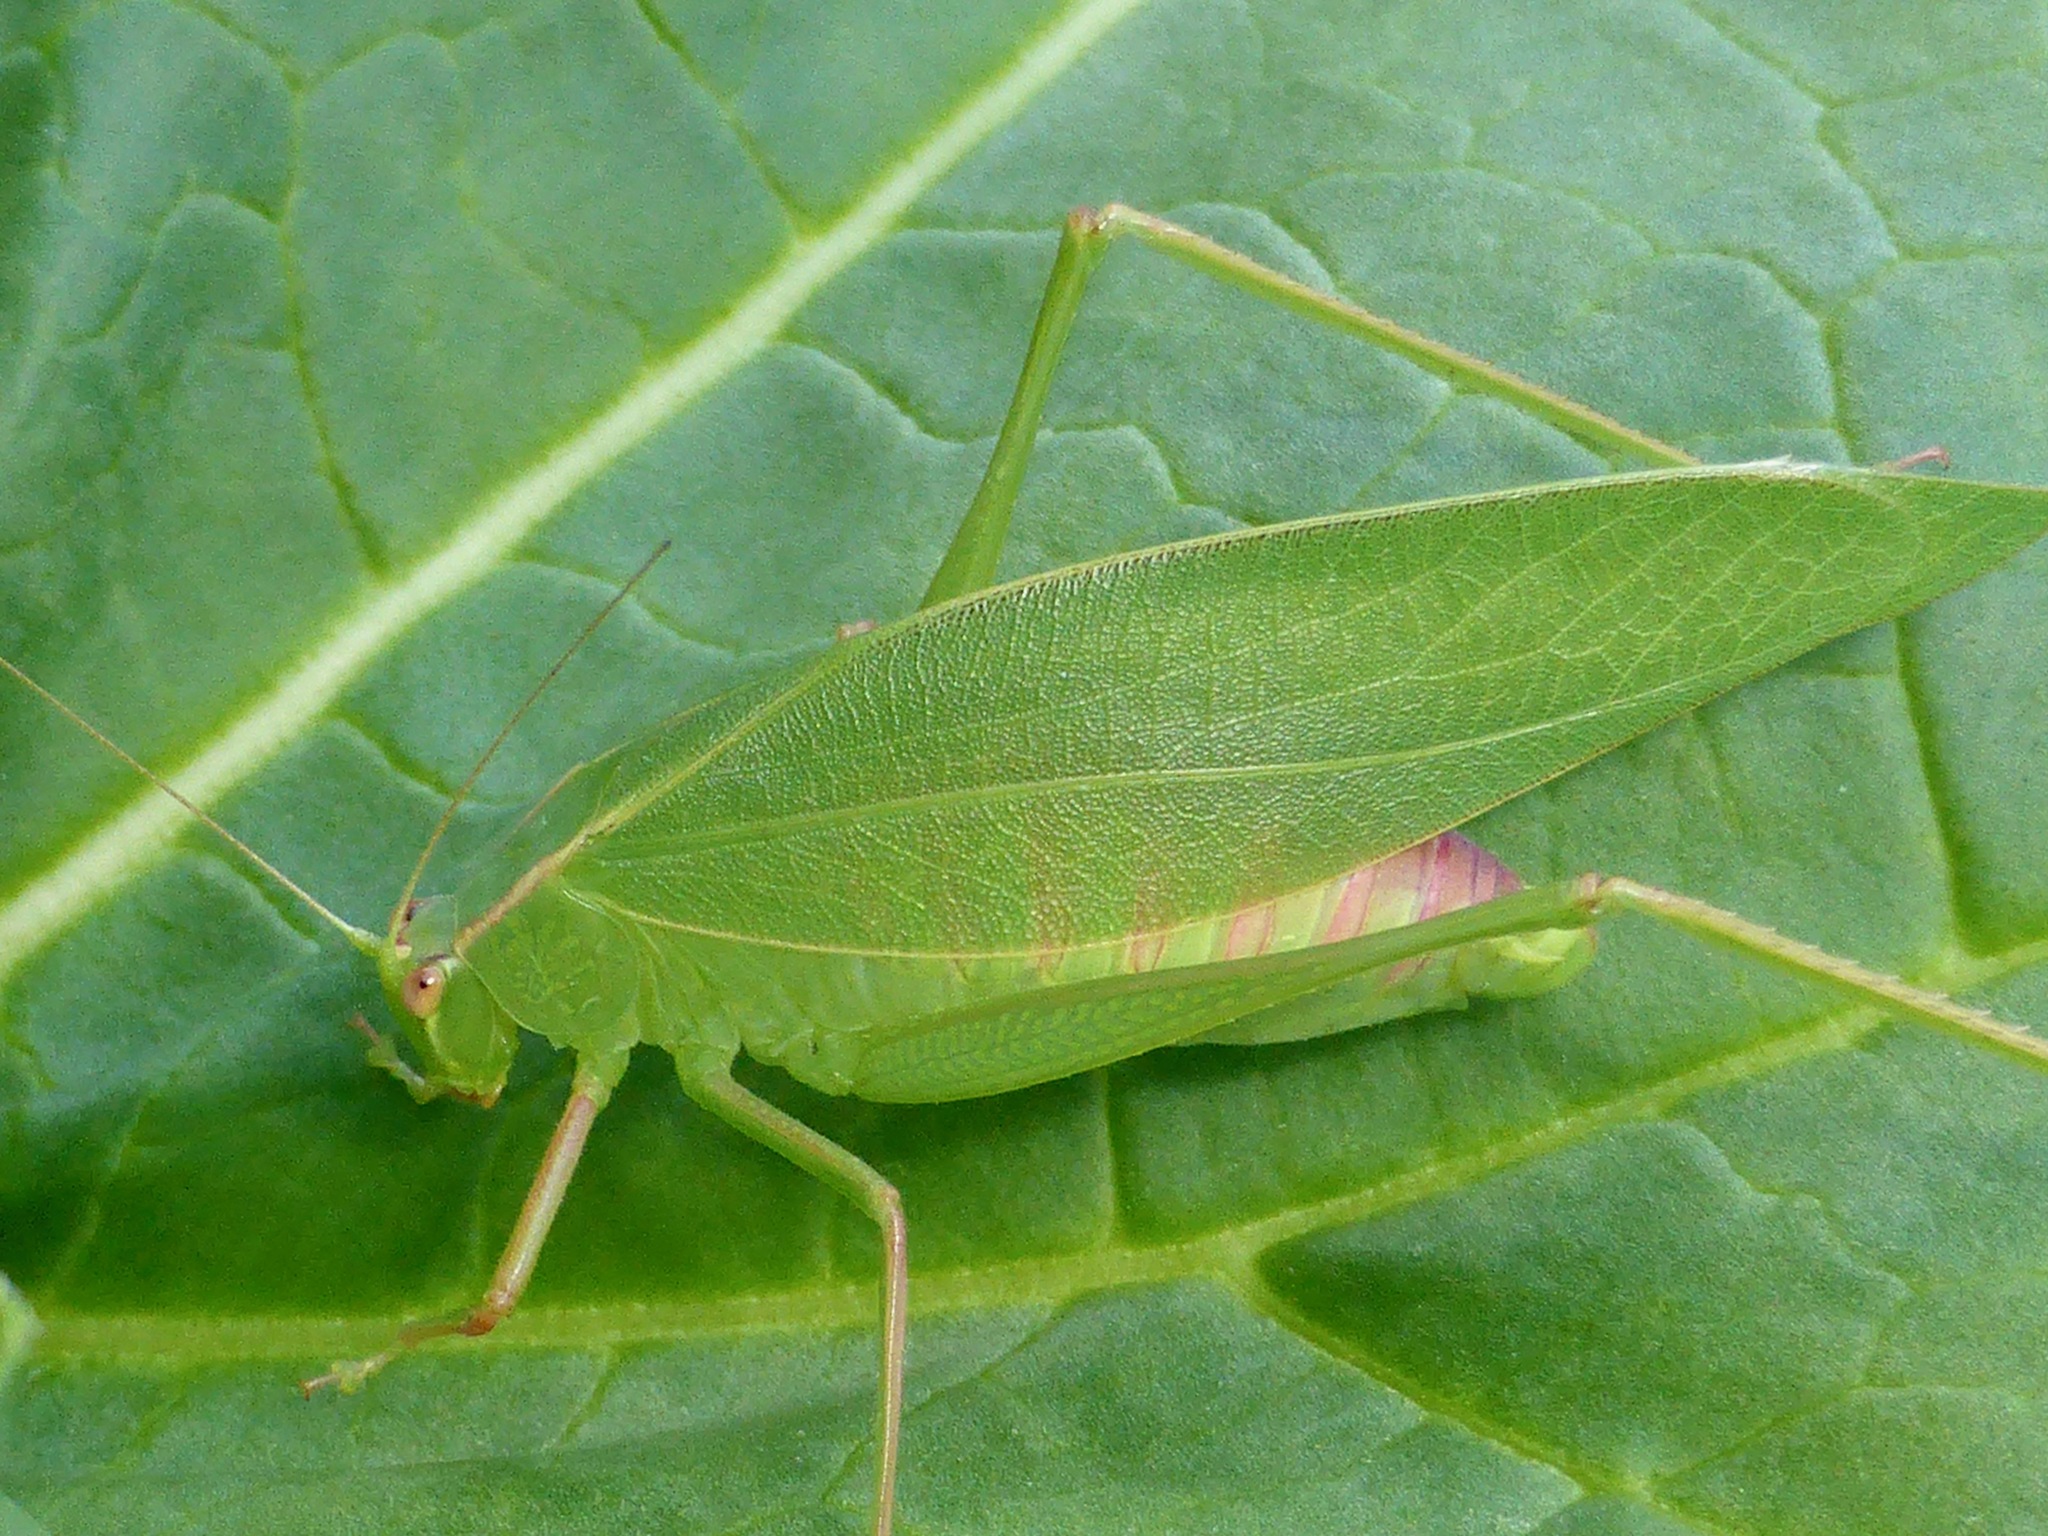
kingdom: Animalia
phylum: Arthropoda
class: Insecta
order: Orthoptera
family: Tettigoniidae
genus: Caedicia
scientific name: Caedicia simplex
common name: Common garden katydid
